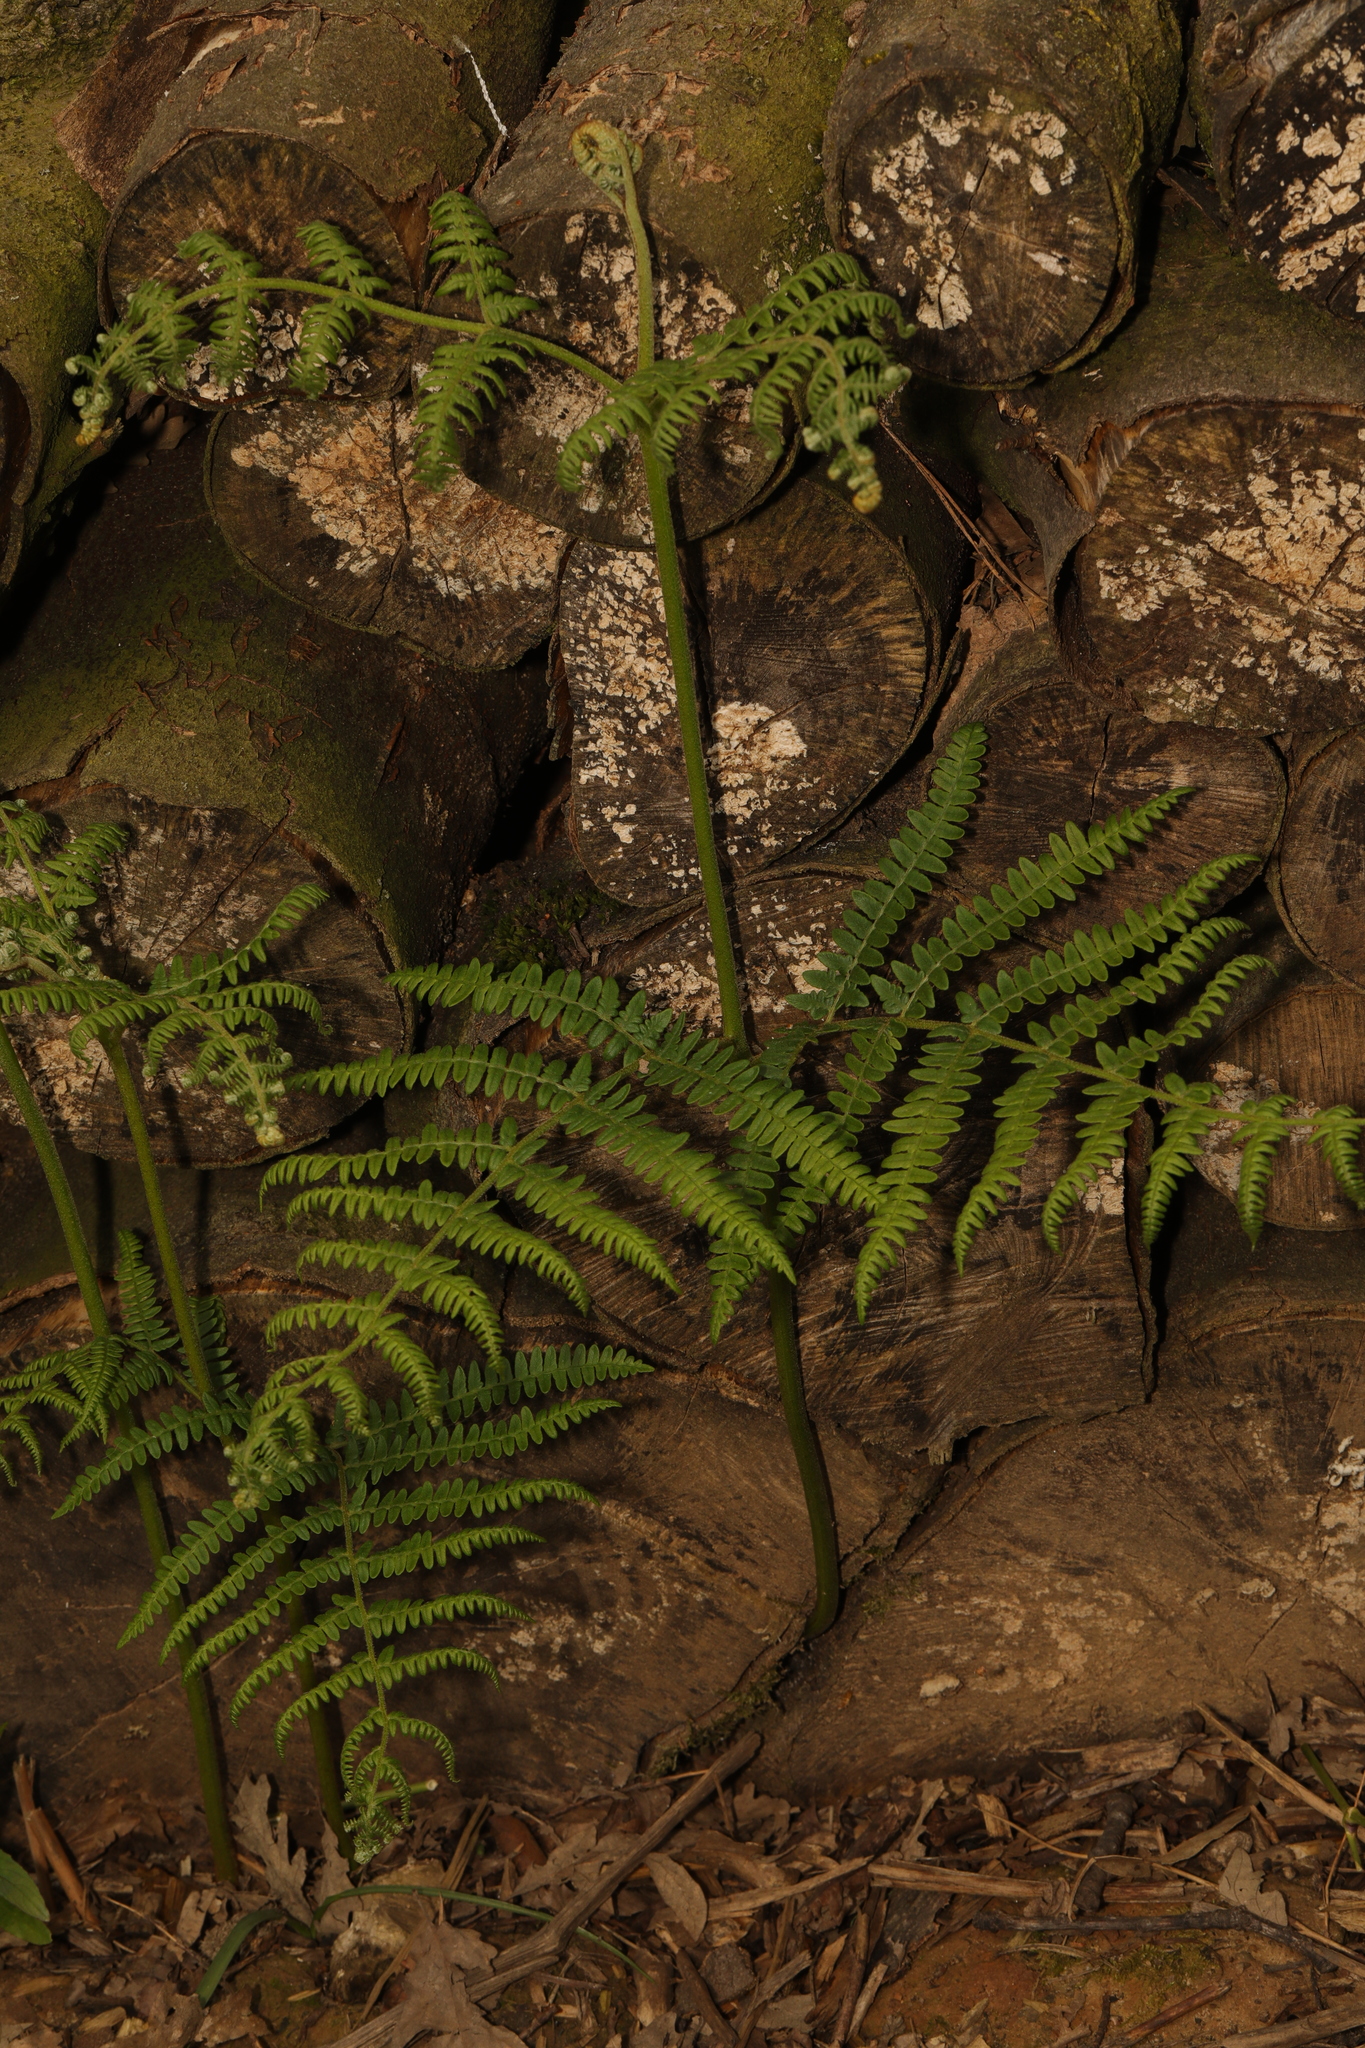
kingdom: Plantae
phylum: Tracheophyta
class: Polypodiopsida
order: Polypodiales
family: Dennstaedtiaceae
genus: Pteridium
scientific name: Pteridium aquilinum
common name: Bracken
